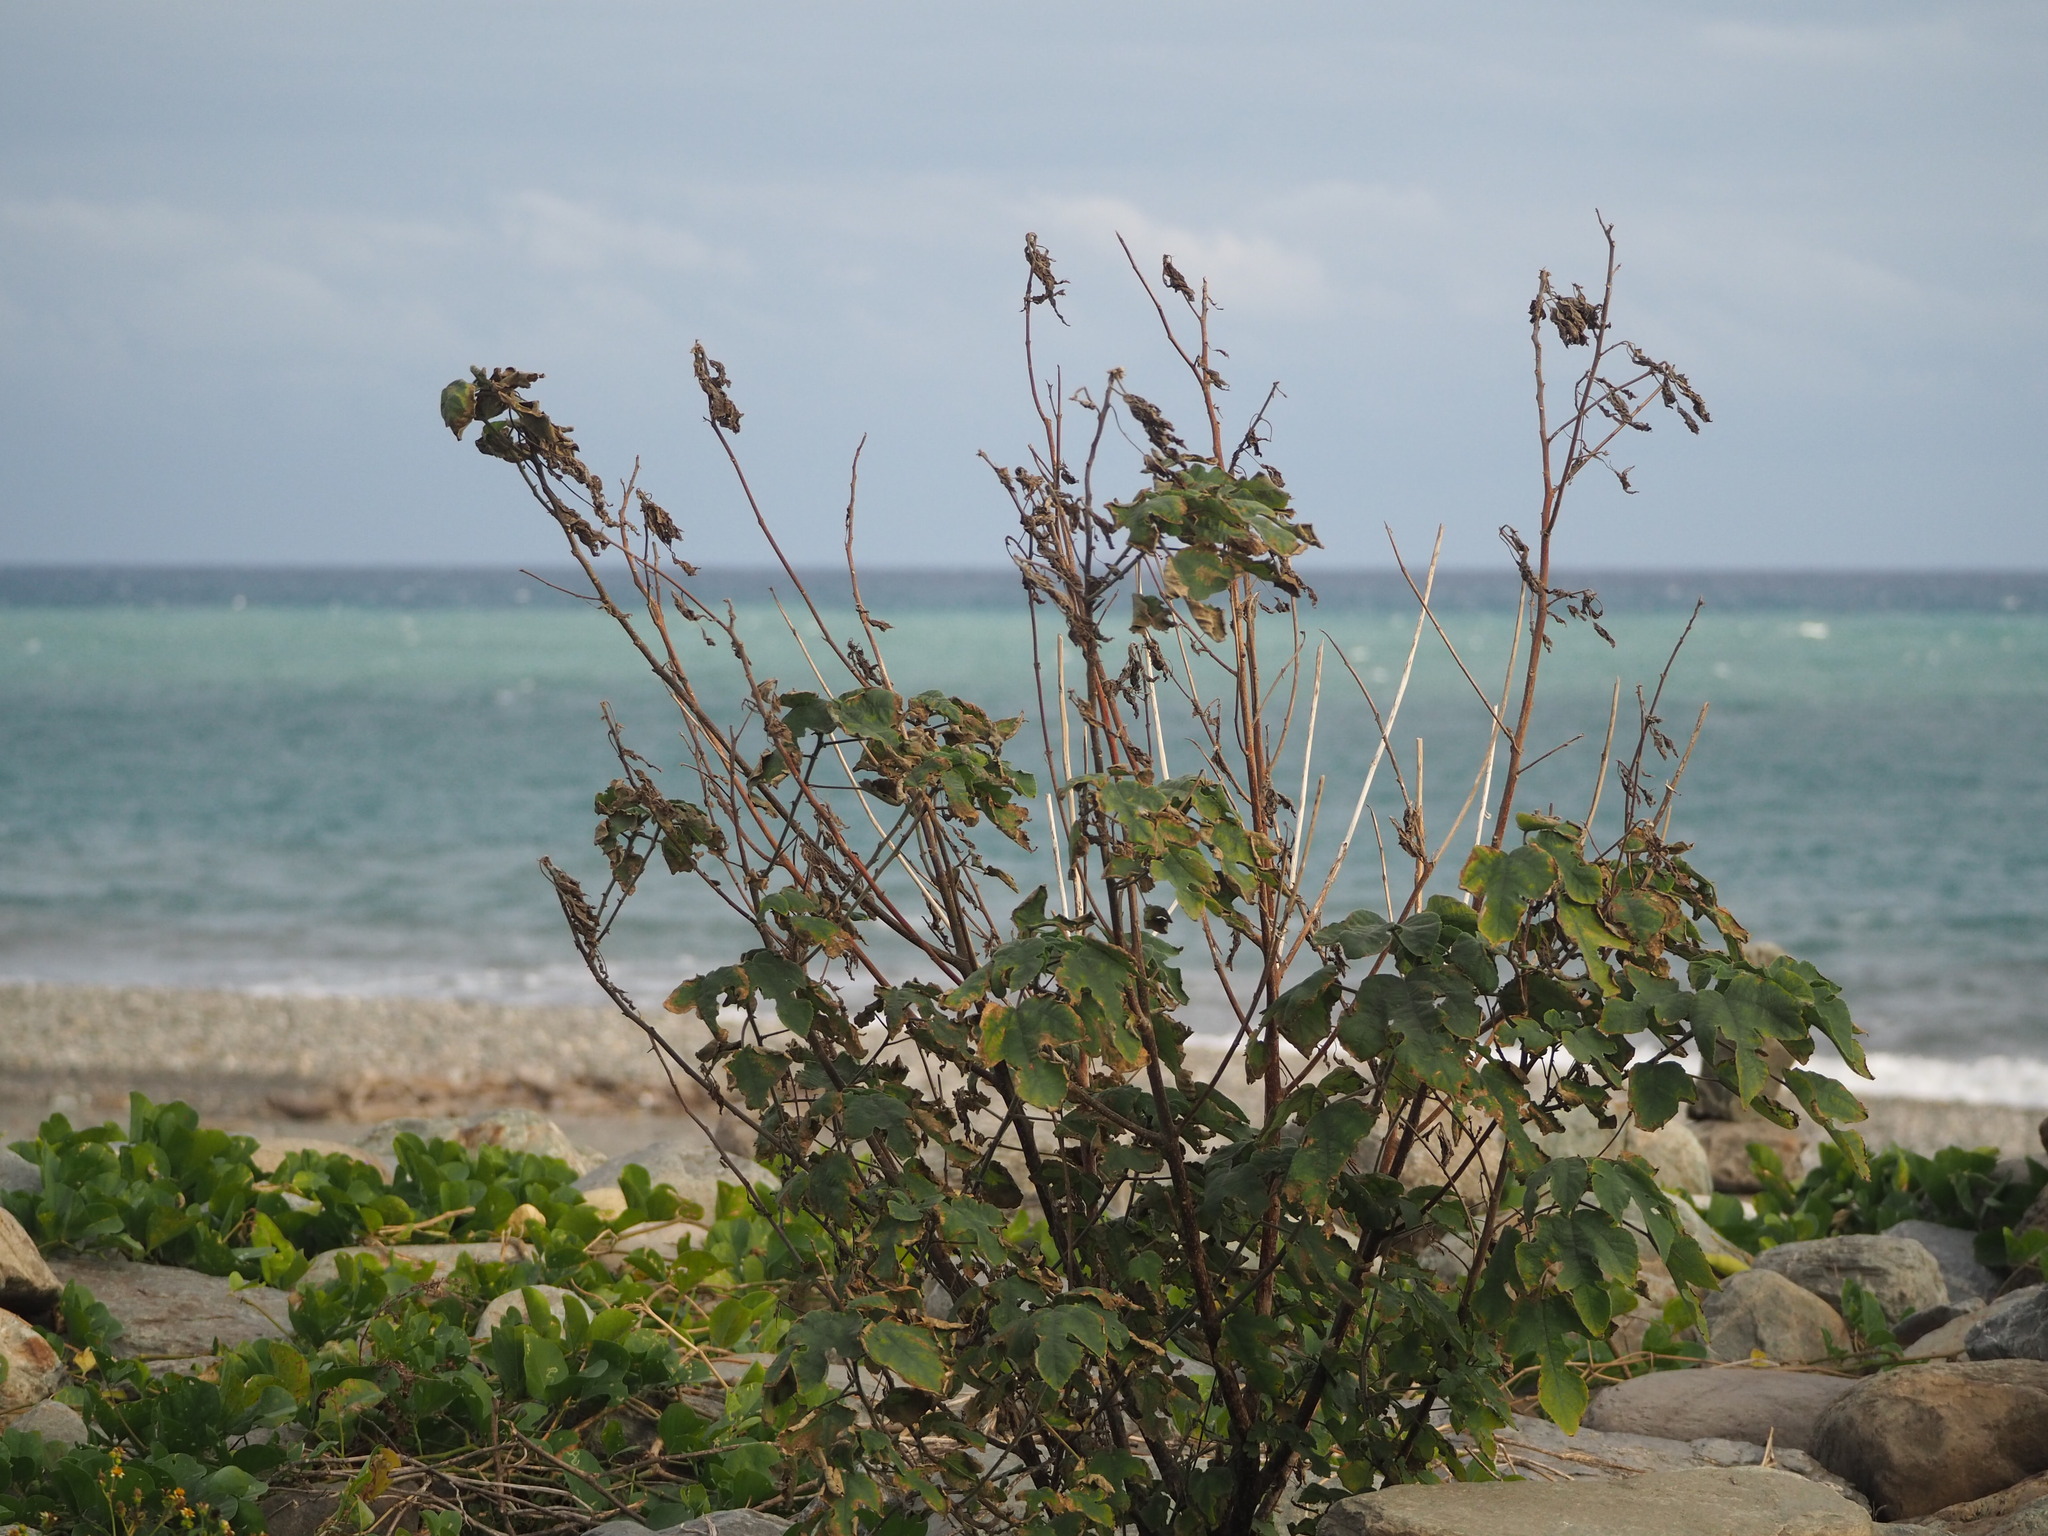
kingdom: Plantae
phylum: Tracheophyta
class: Magnoliopsida
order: Rosales
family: Moraceae
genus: Broussonetia
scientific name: Broussonetia papyrifera
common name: Paper mulberry
